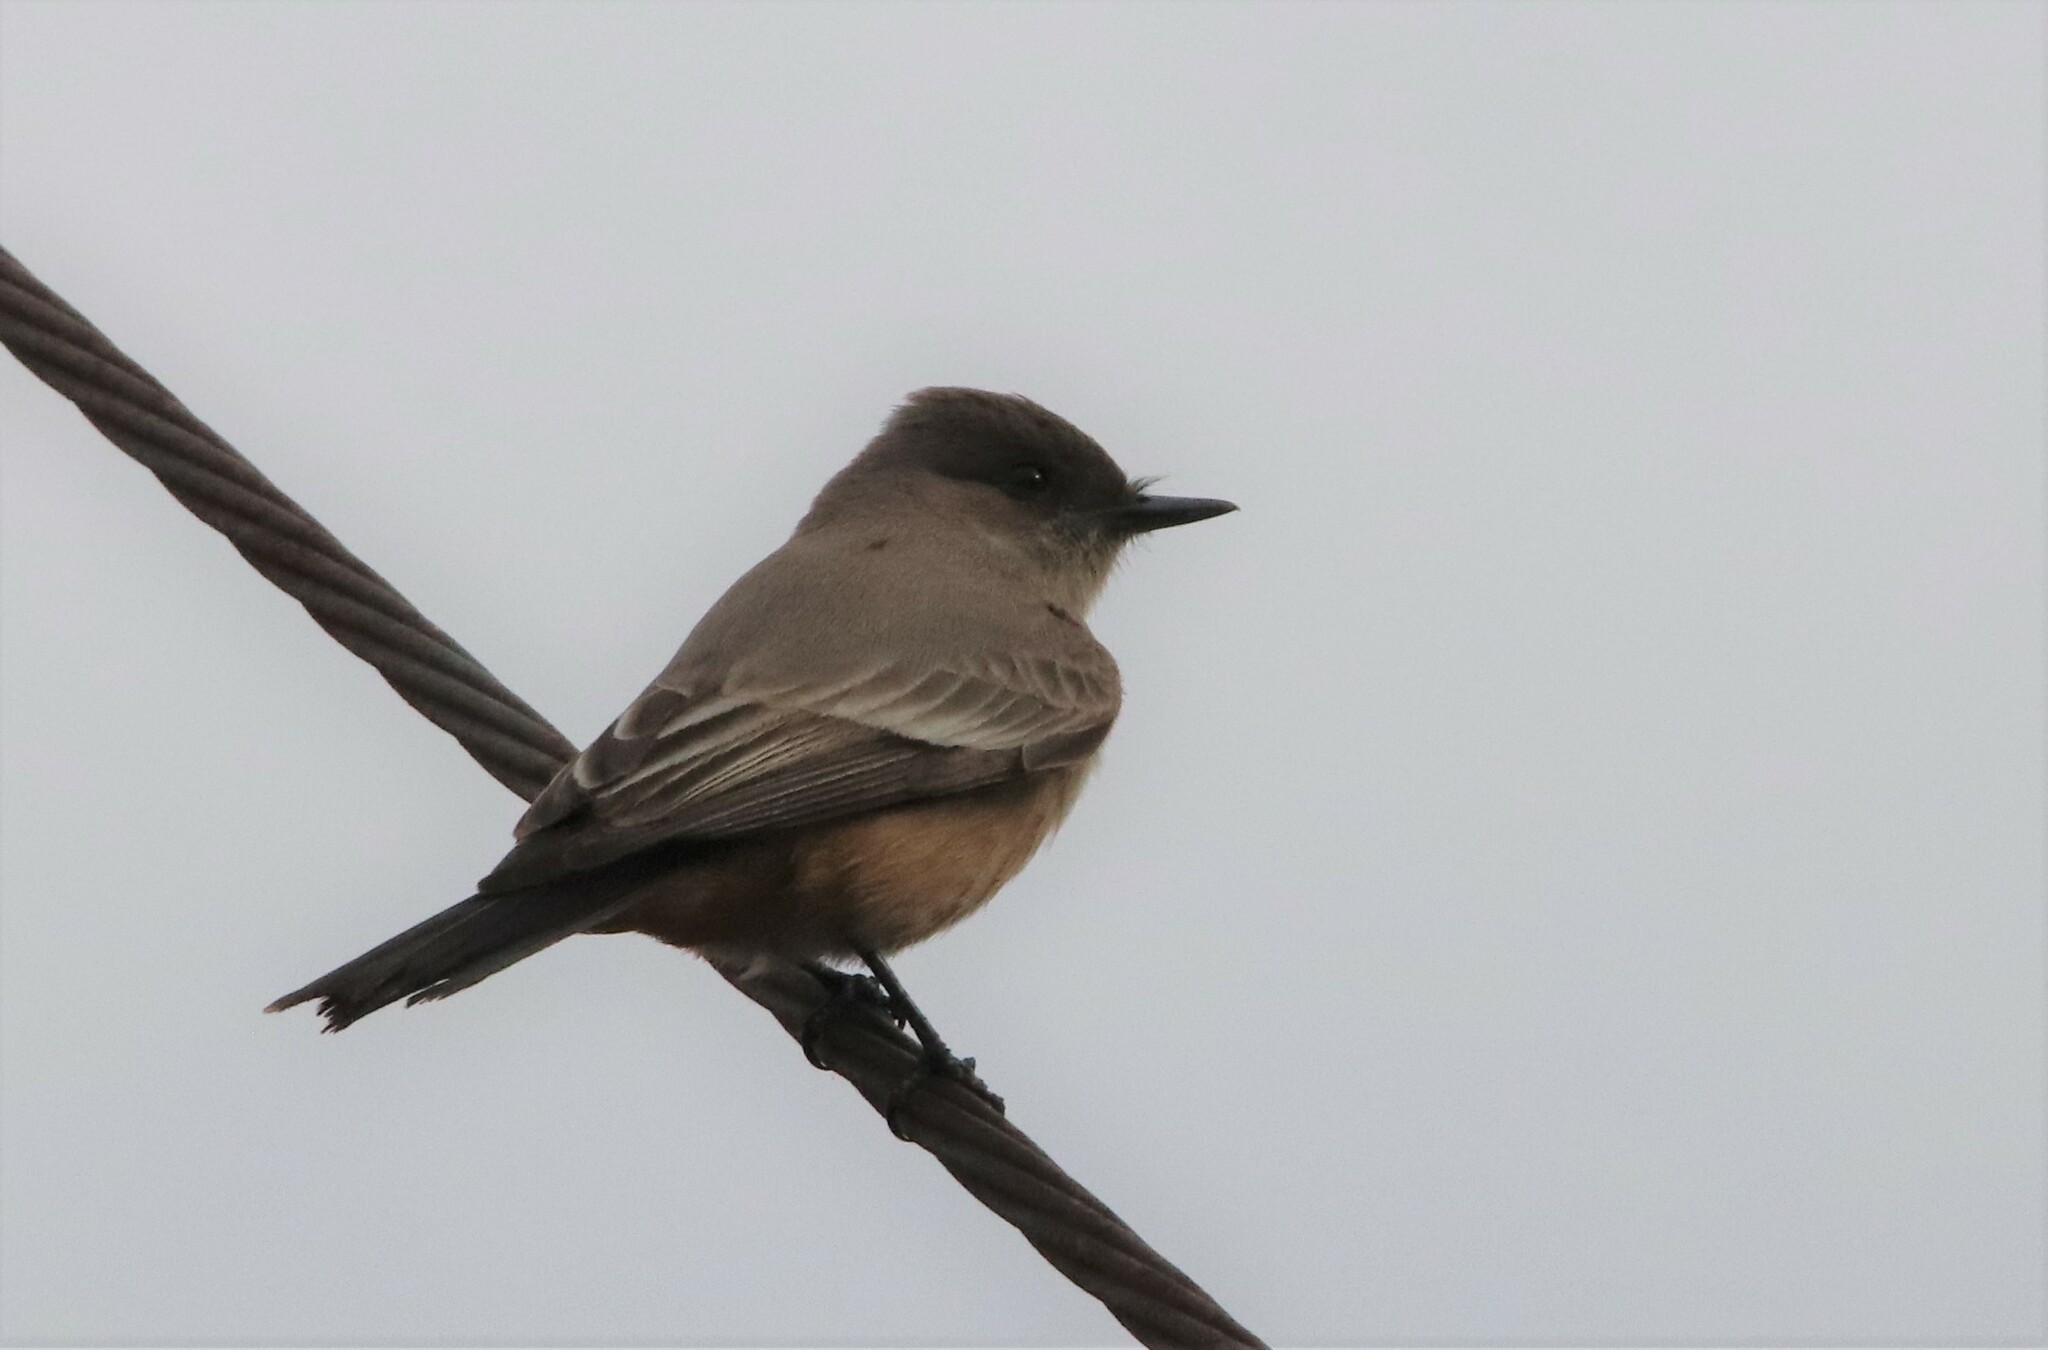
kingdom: Animalia
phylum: Chordata
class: Aves
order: Passeriformes
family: Tyrannidae
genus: Sayornis
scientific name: Sayornis saya
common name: Say's phoebe
